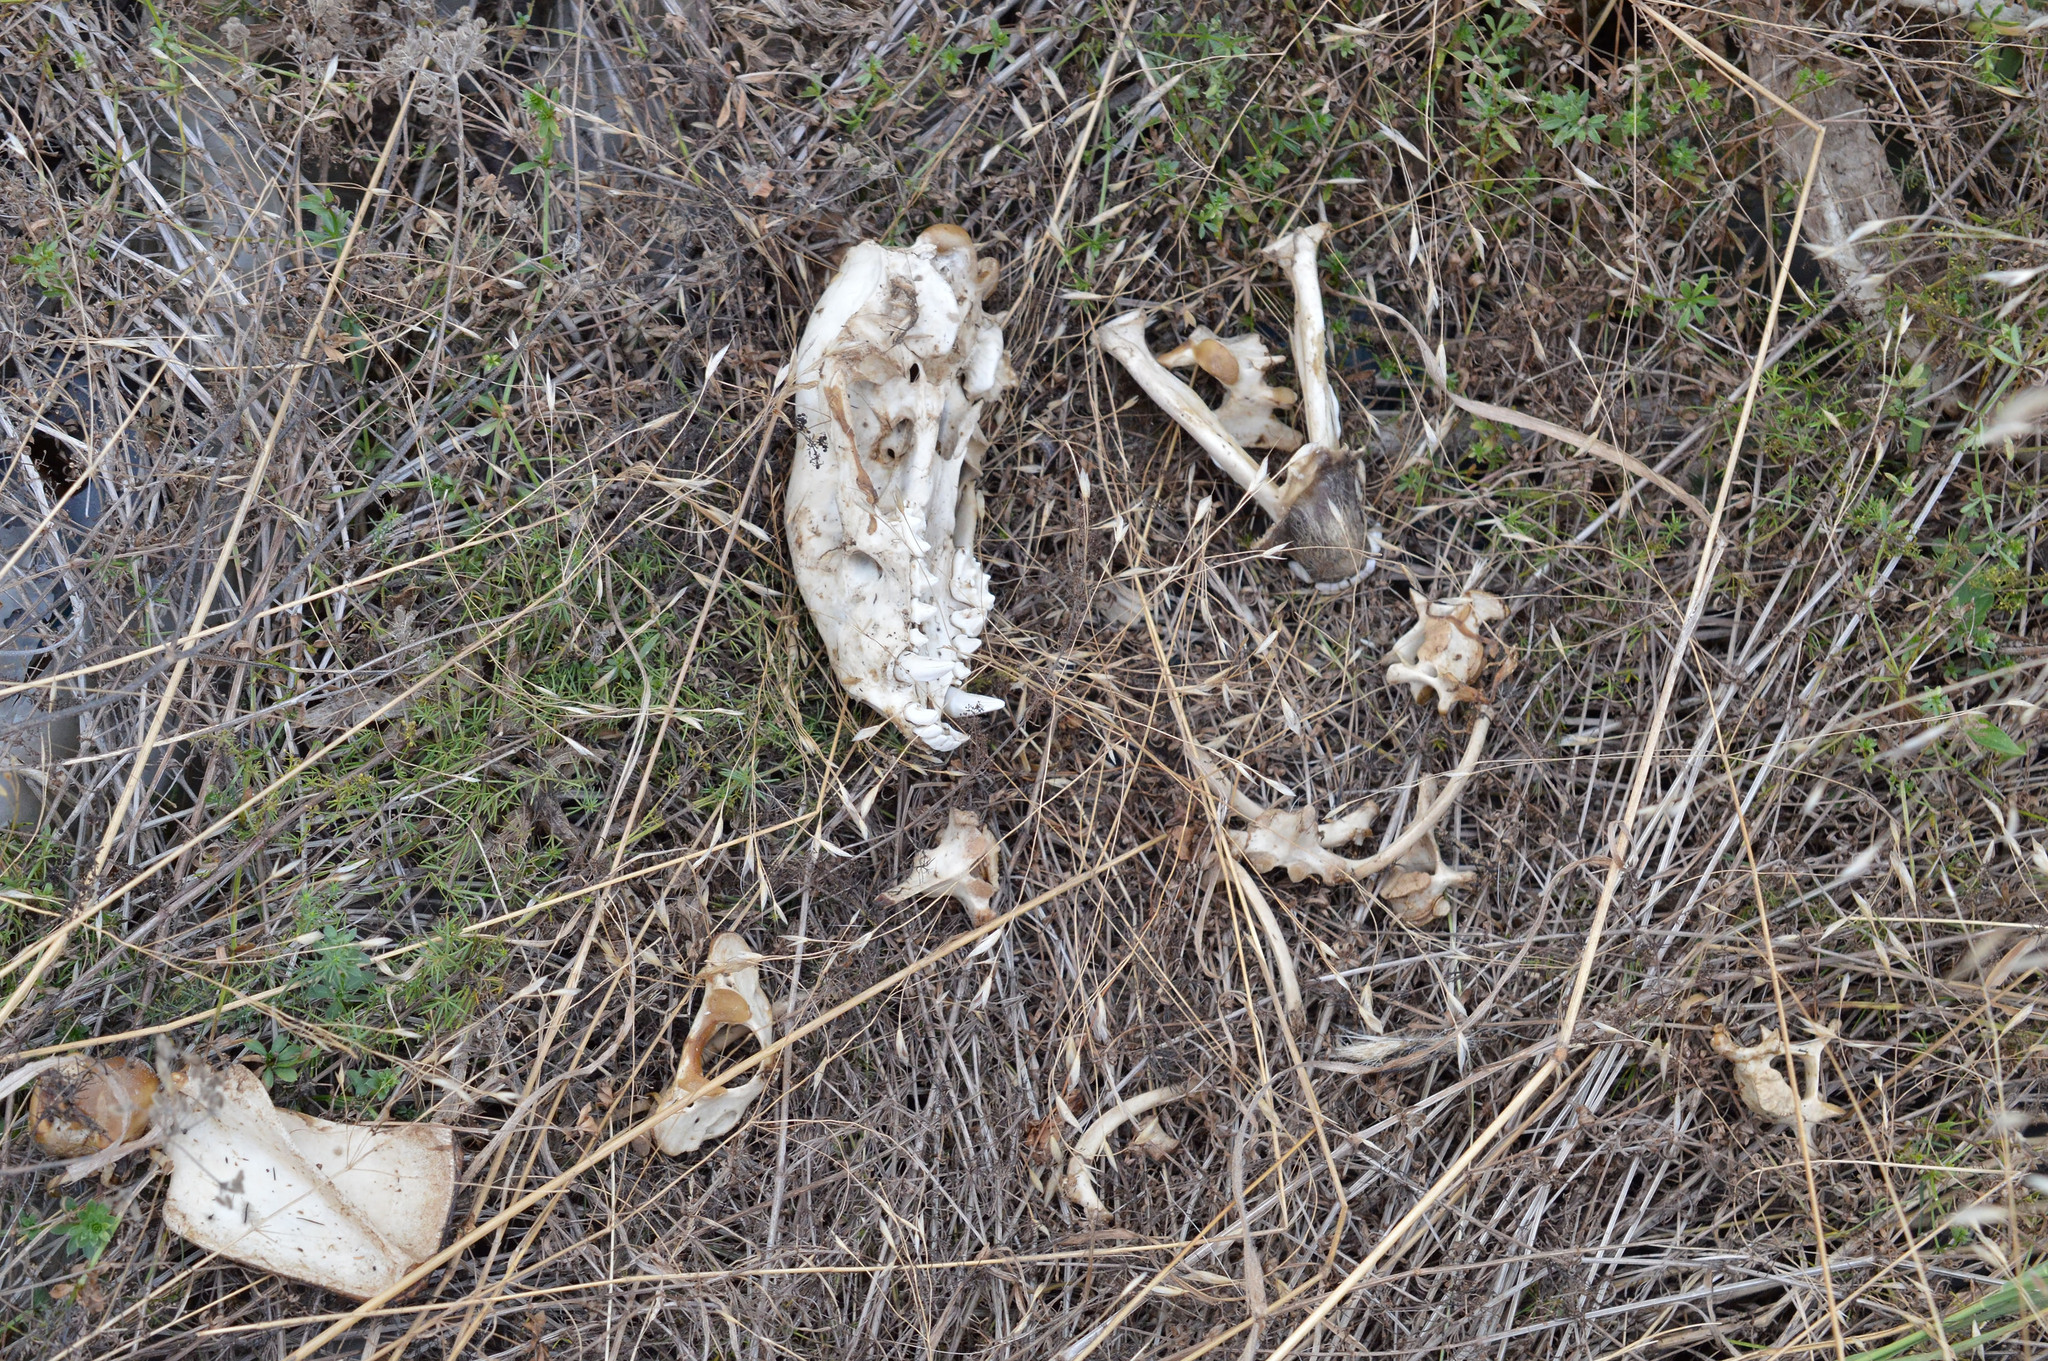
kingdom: Animalia
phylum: Chordata
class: Mammalia
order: Carnivora
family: Mustelidae
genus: Meles
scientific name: Meles meles
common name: Eurasian badger
